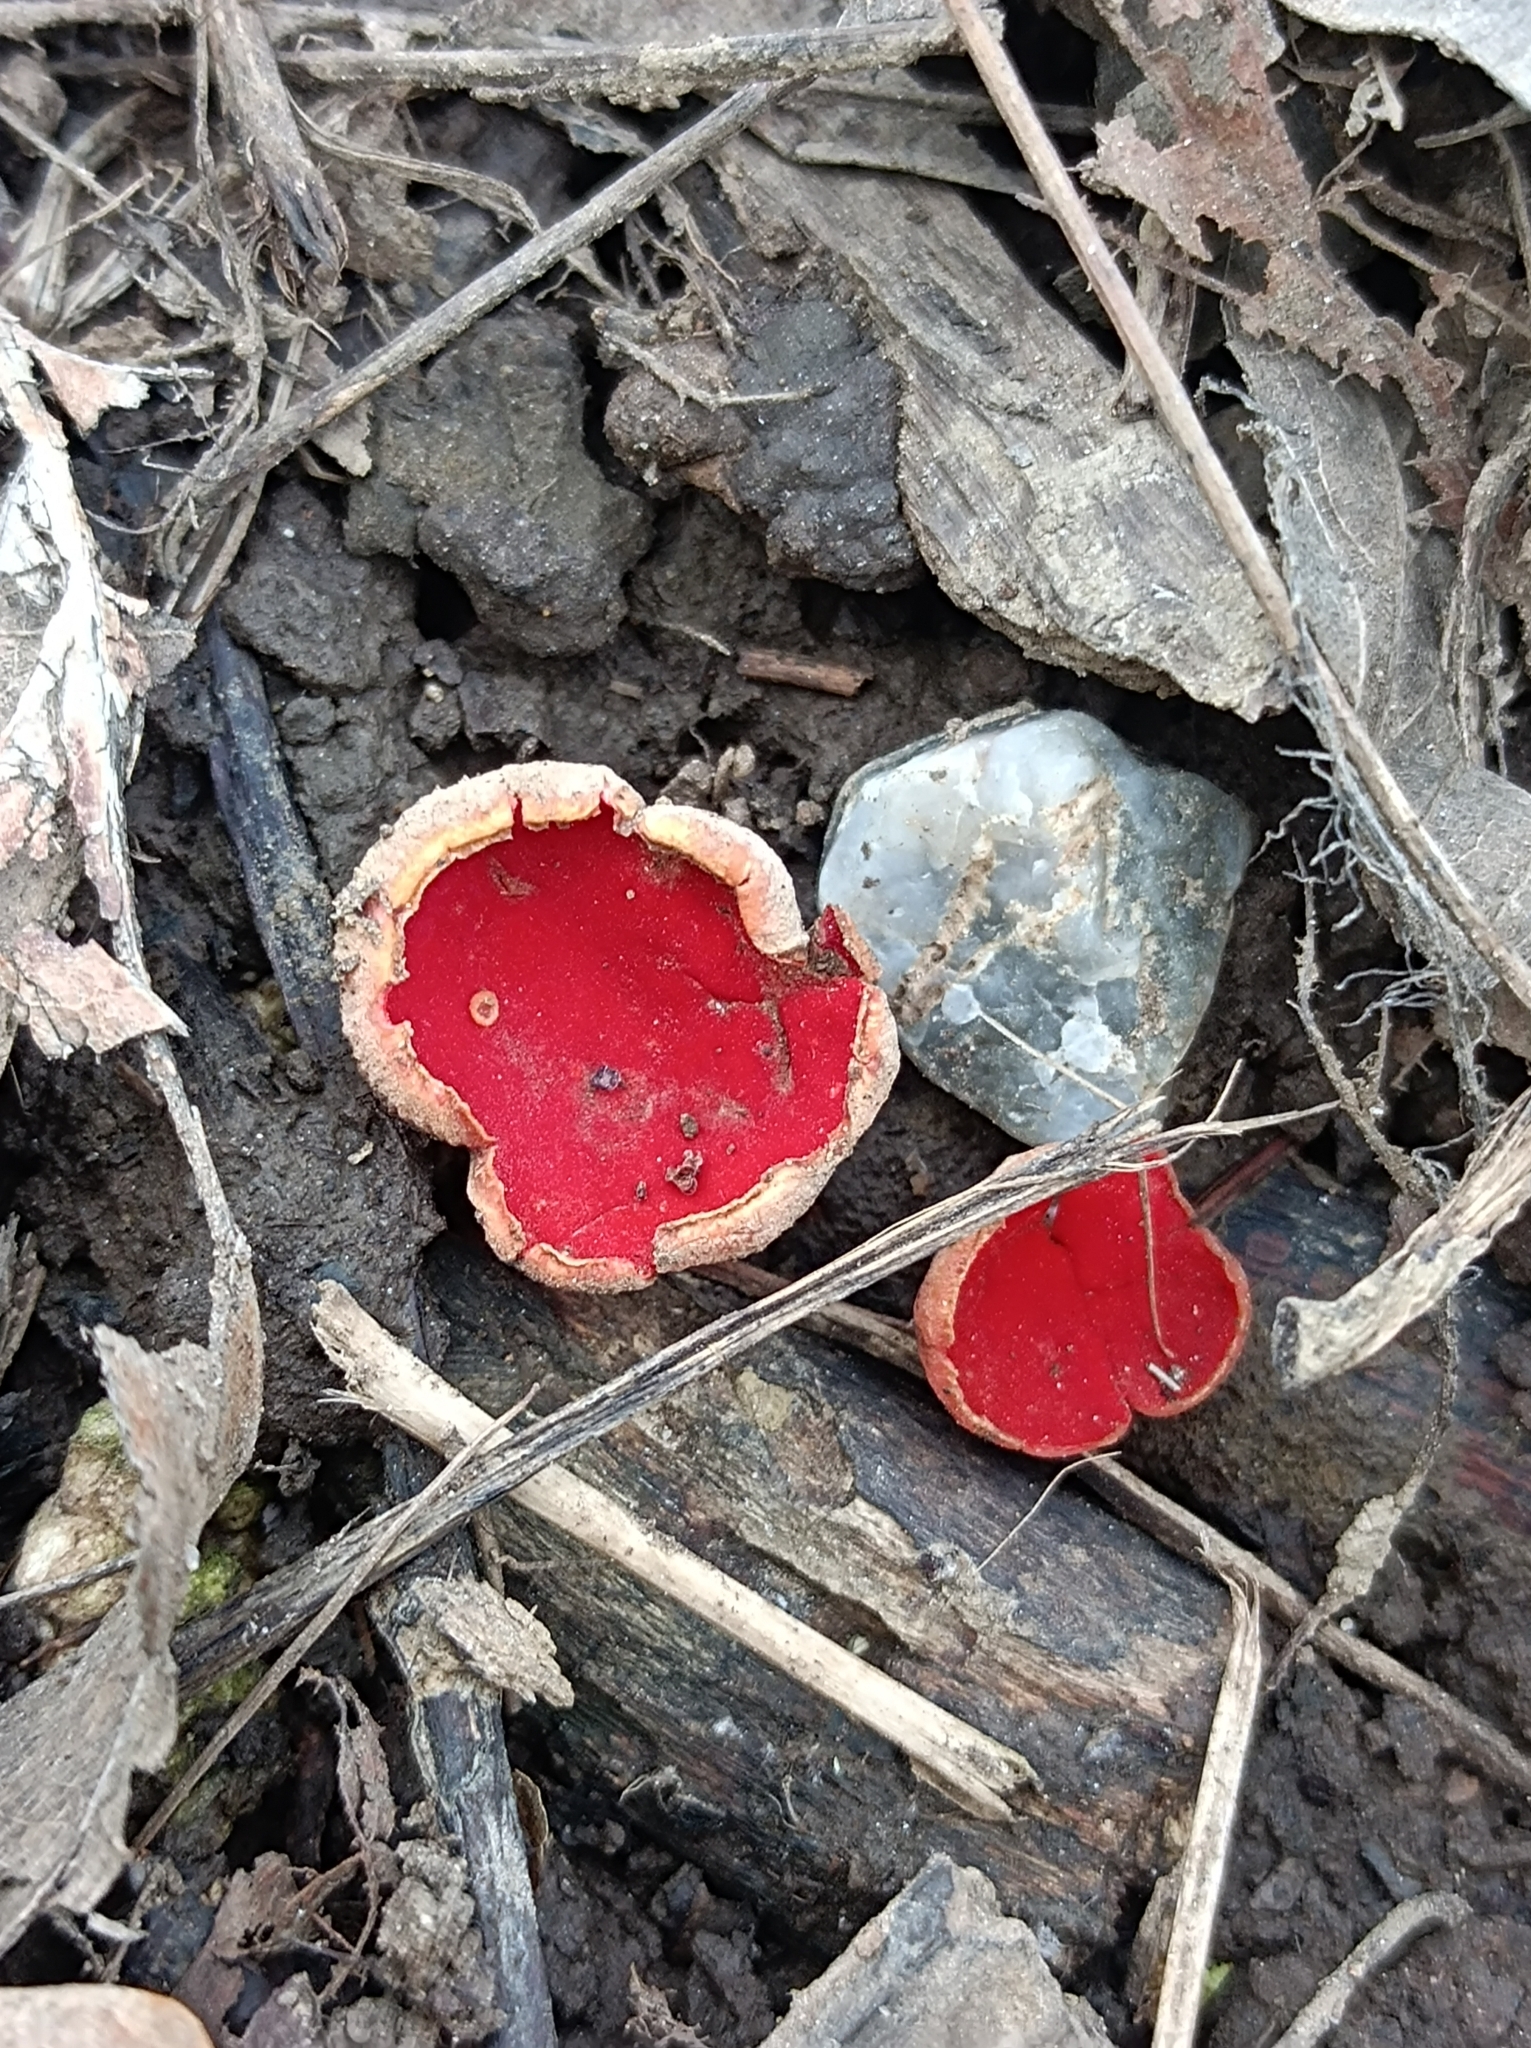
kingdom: Fungi
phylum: Ascomycota
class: Pezizomycetes
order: Pezizales
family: Sarcoscyphaceae
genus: Sarcoscypha
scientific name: Sarcoscypha
